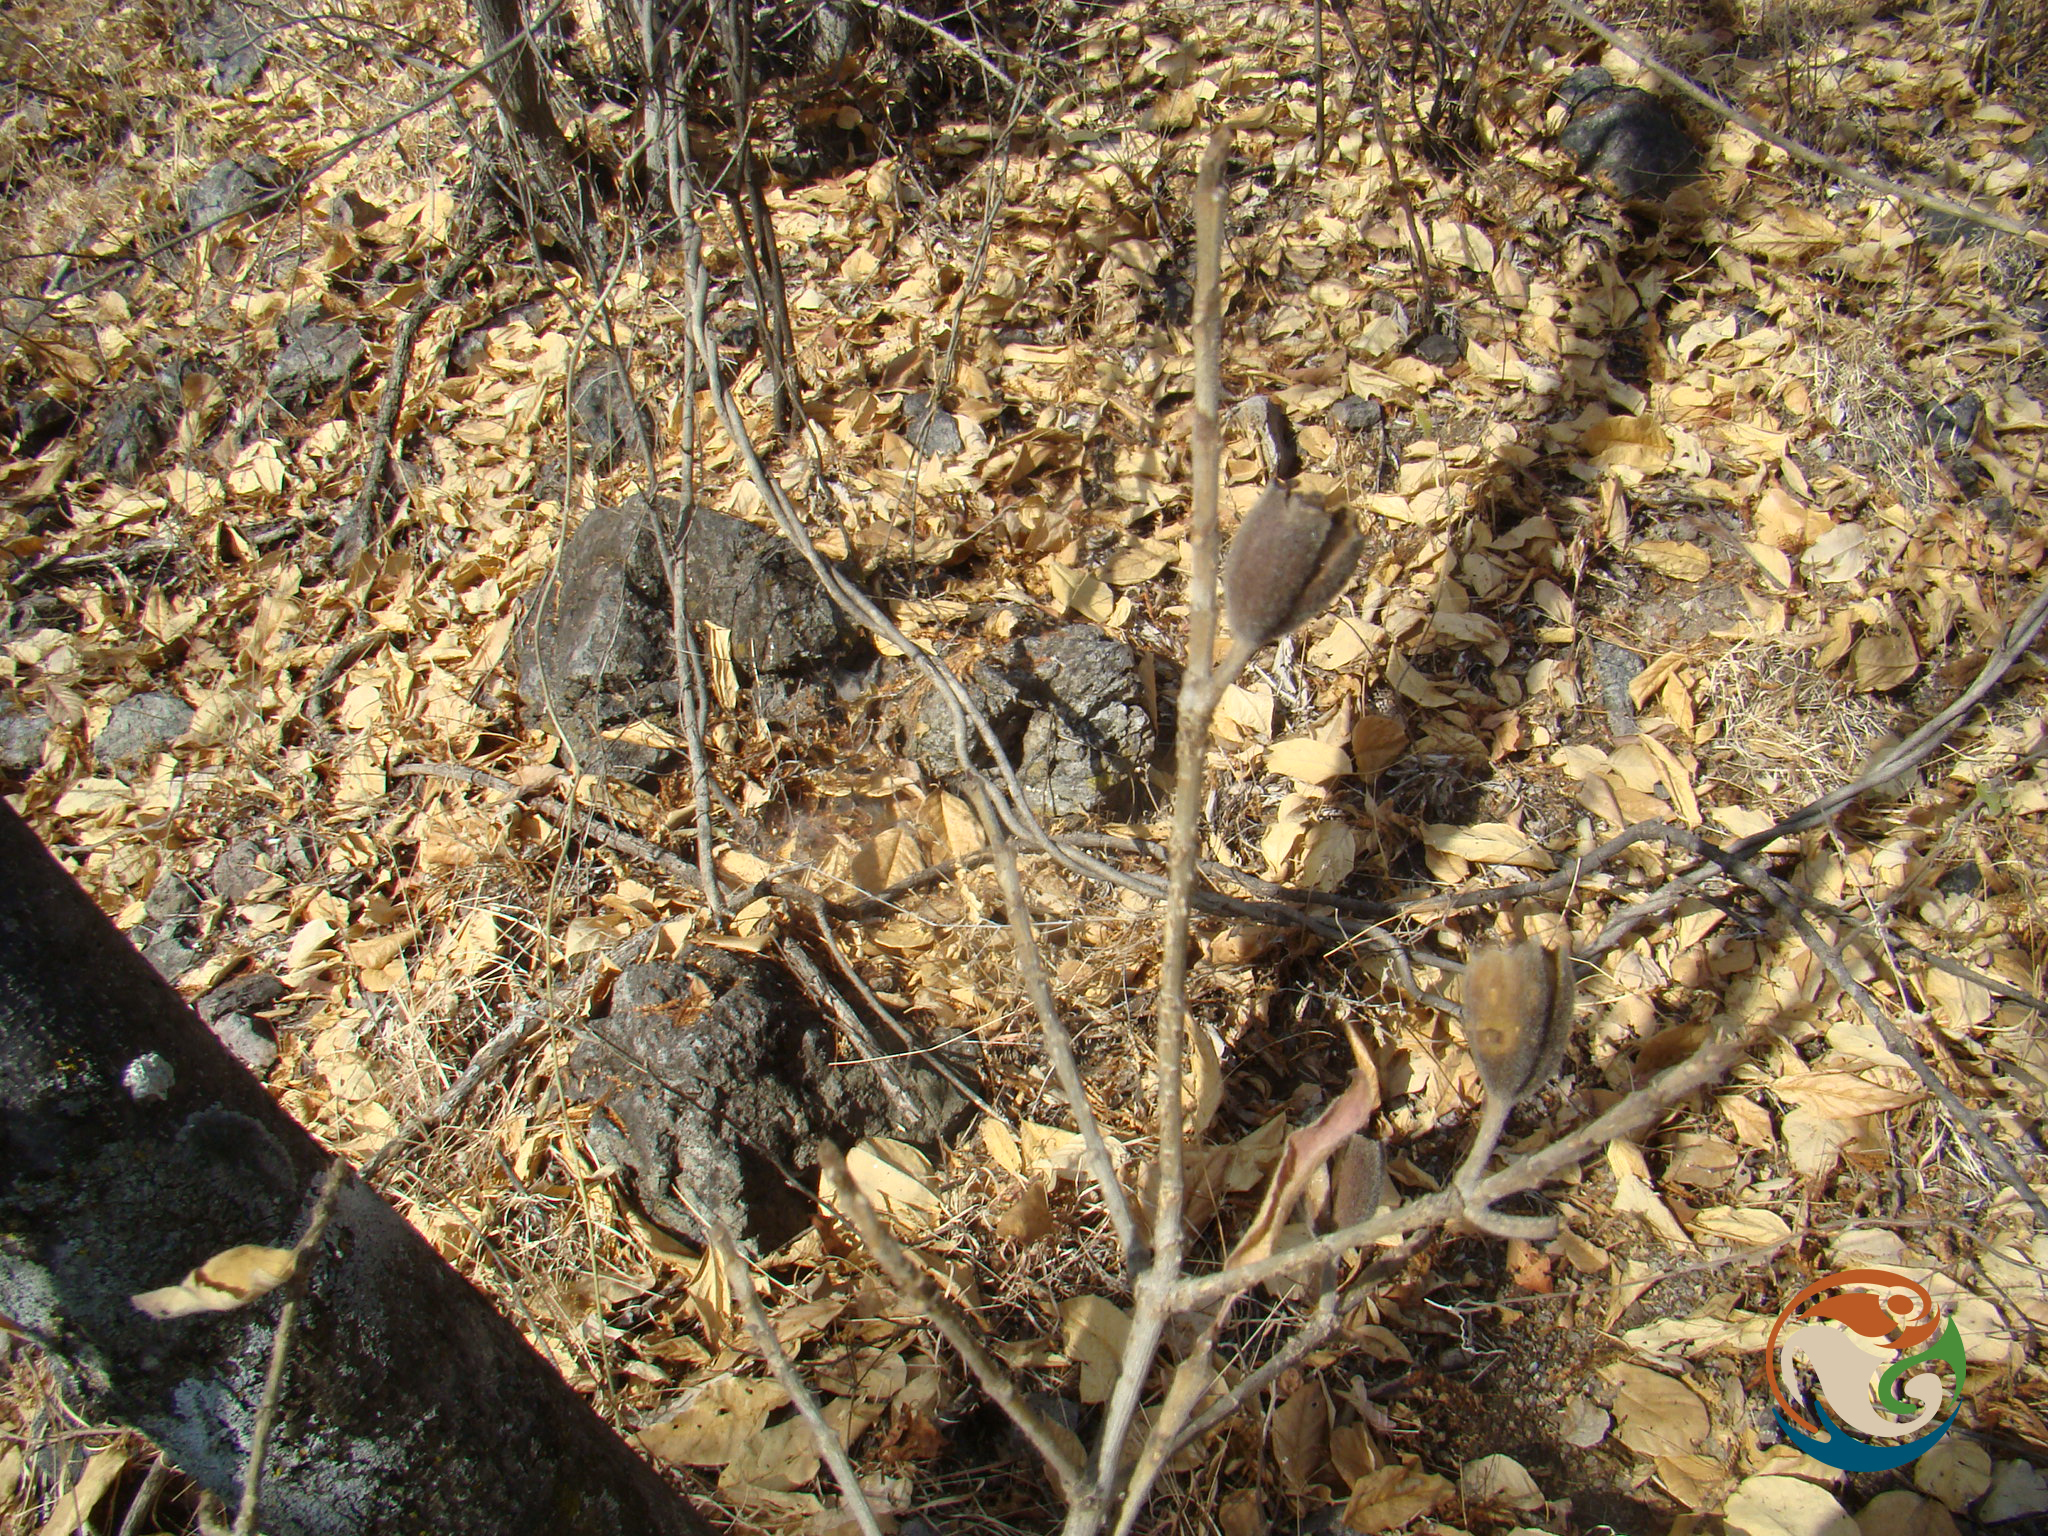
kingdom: Plantae
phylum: Tracheophyta
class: Magnoliopsida
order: Gentianales
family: Rubiaceae
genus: Hintonia
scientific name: Hintonia latiflora
